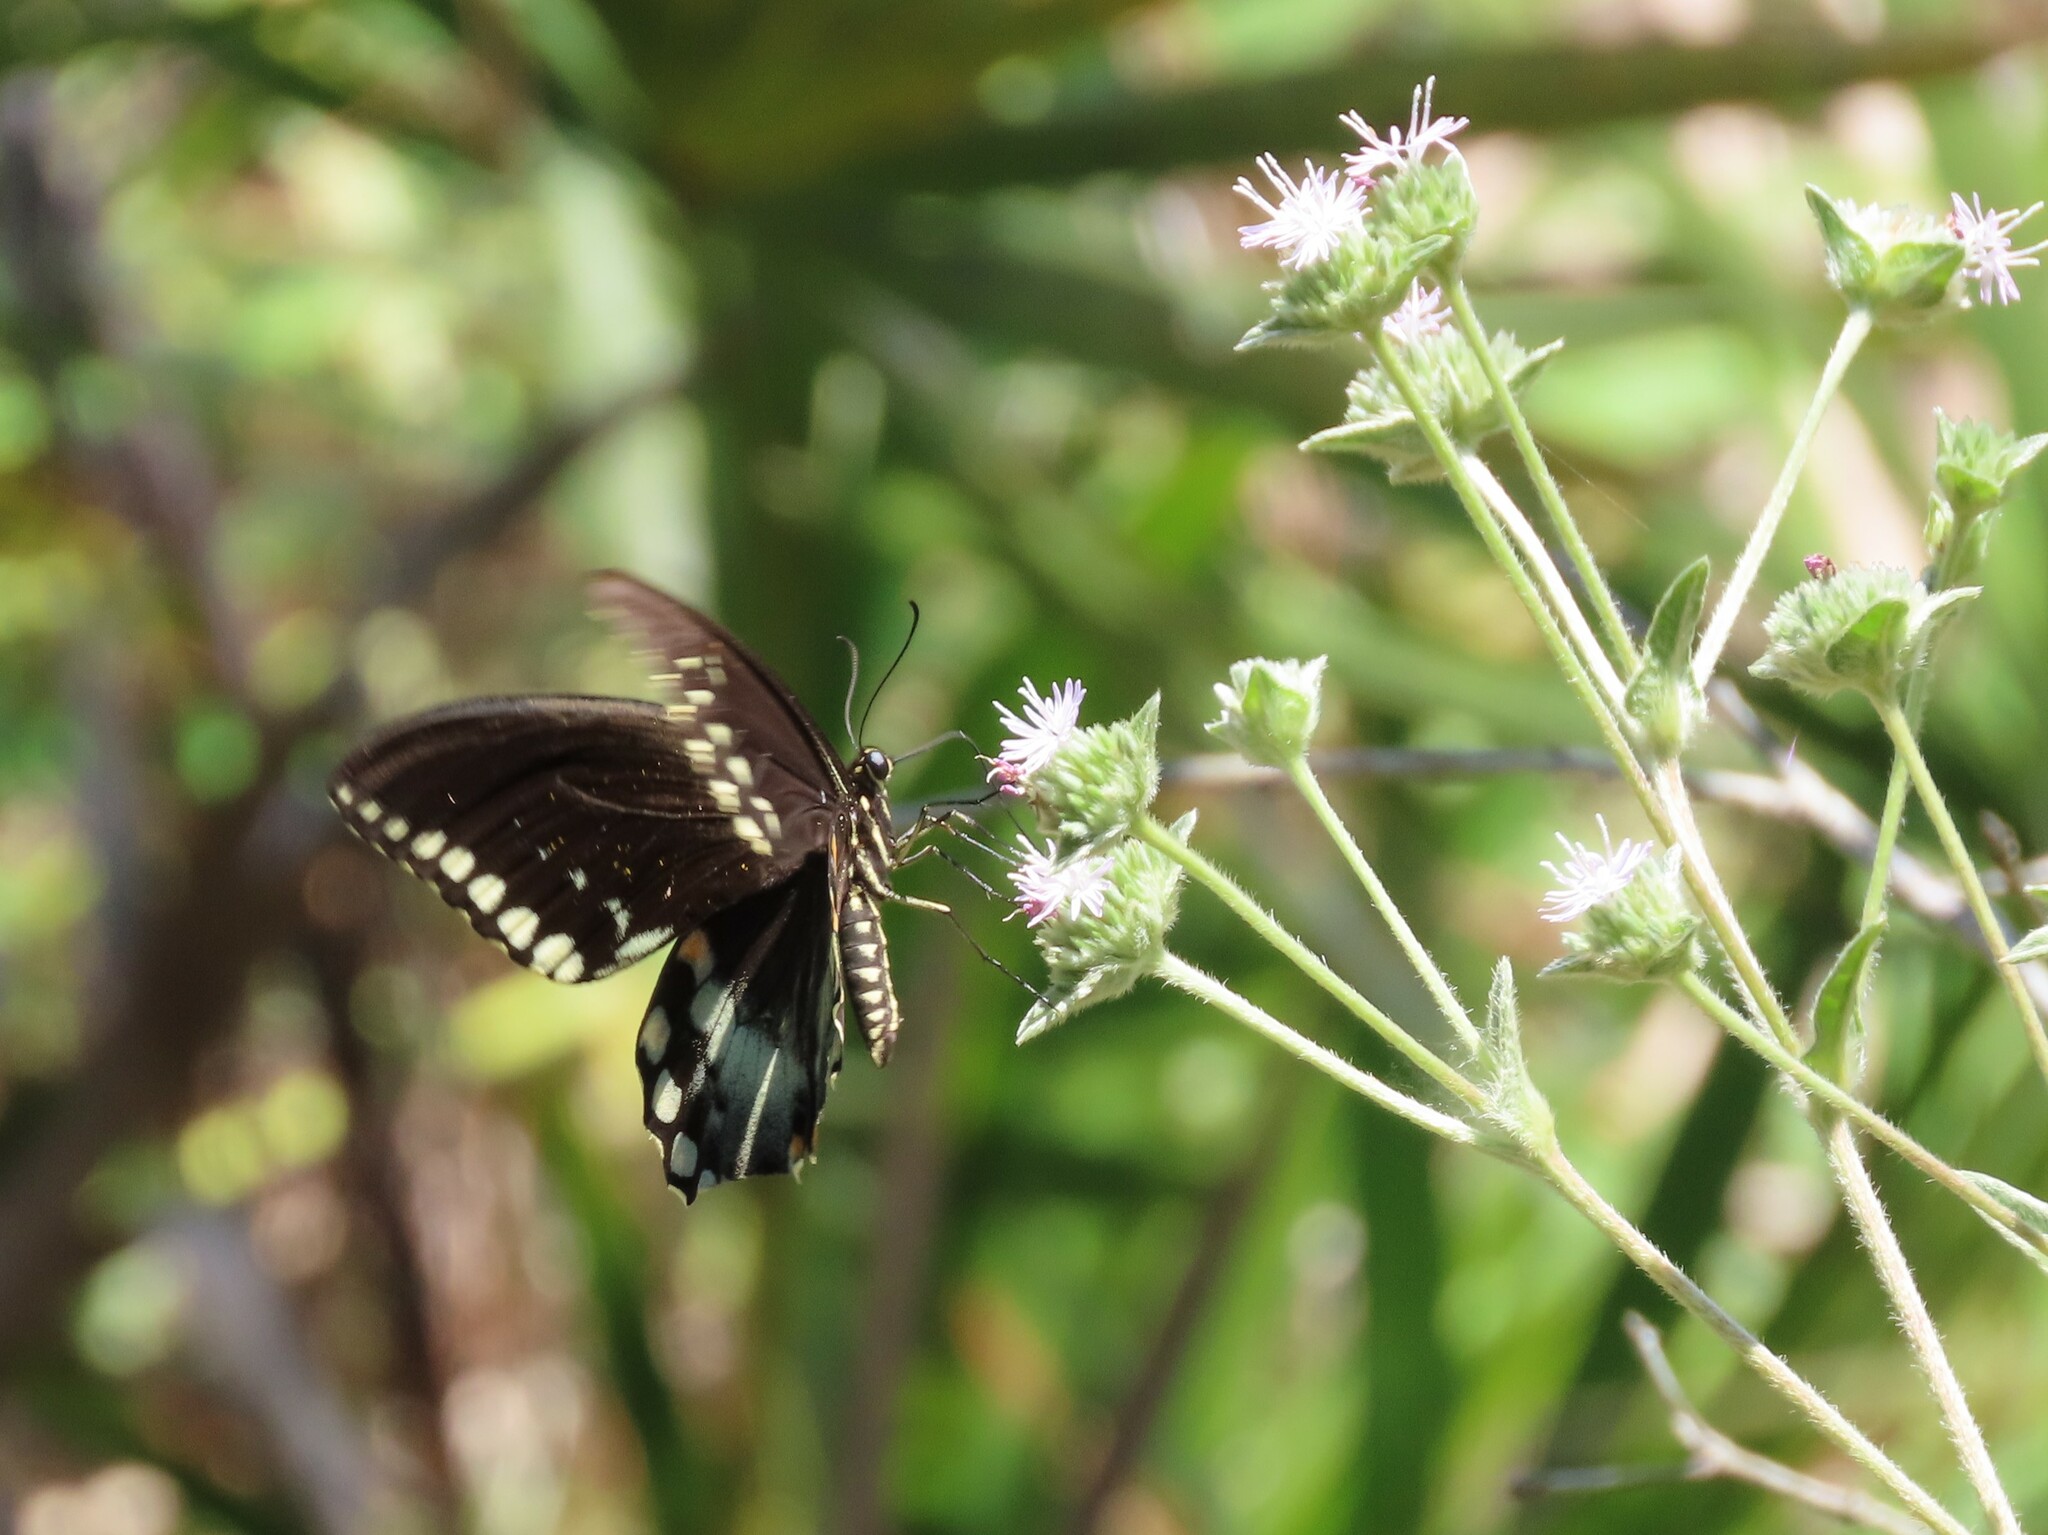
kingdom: Animalia
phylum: Arthropoda
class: Insecta
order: Lepidoptera
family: Papilionidae
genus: Papilio
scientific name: Papilio troilus
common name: Spicebush swallowtail
